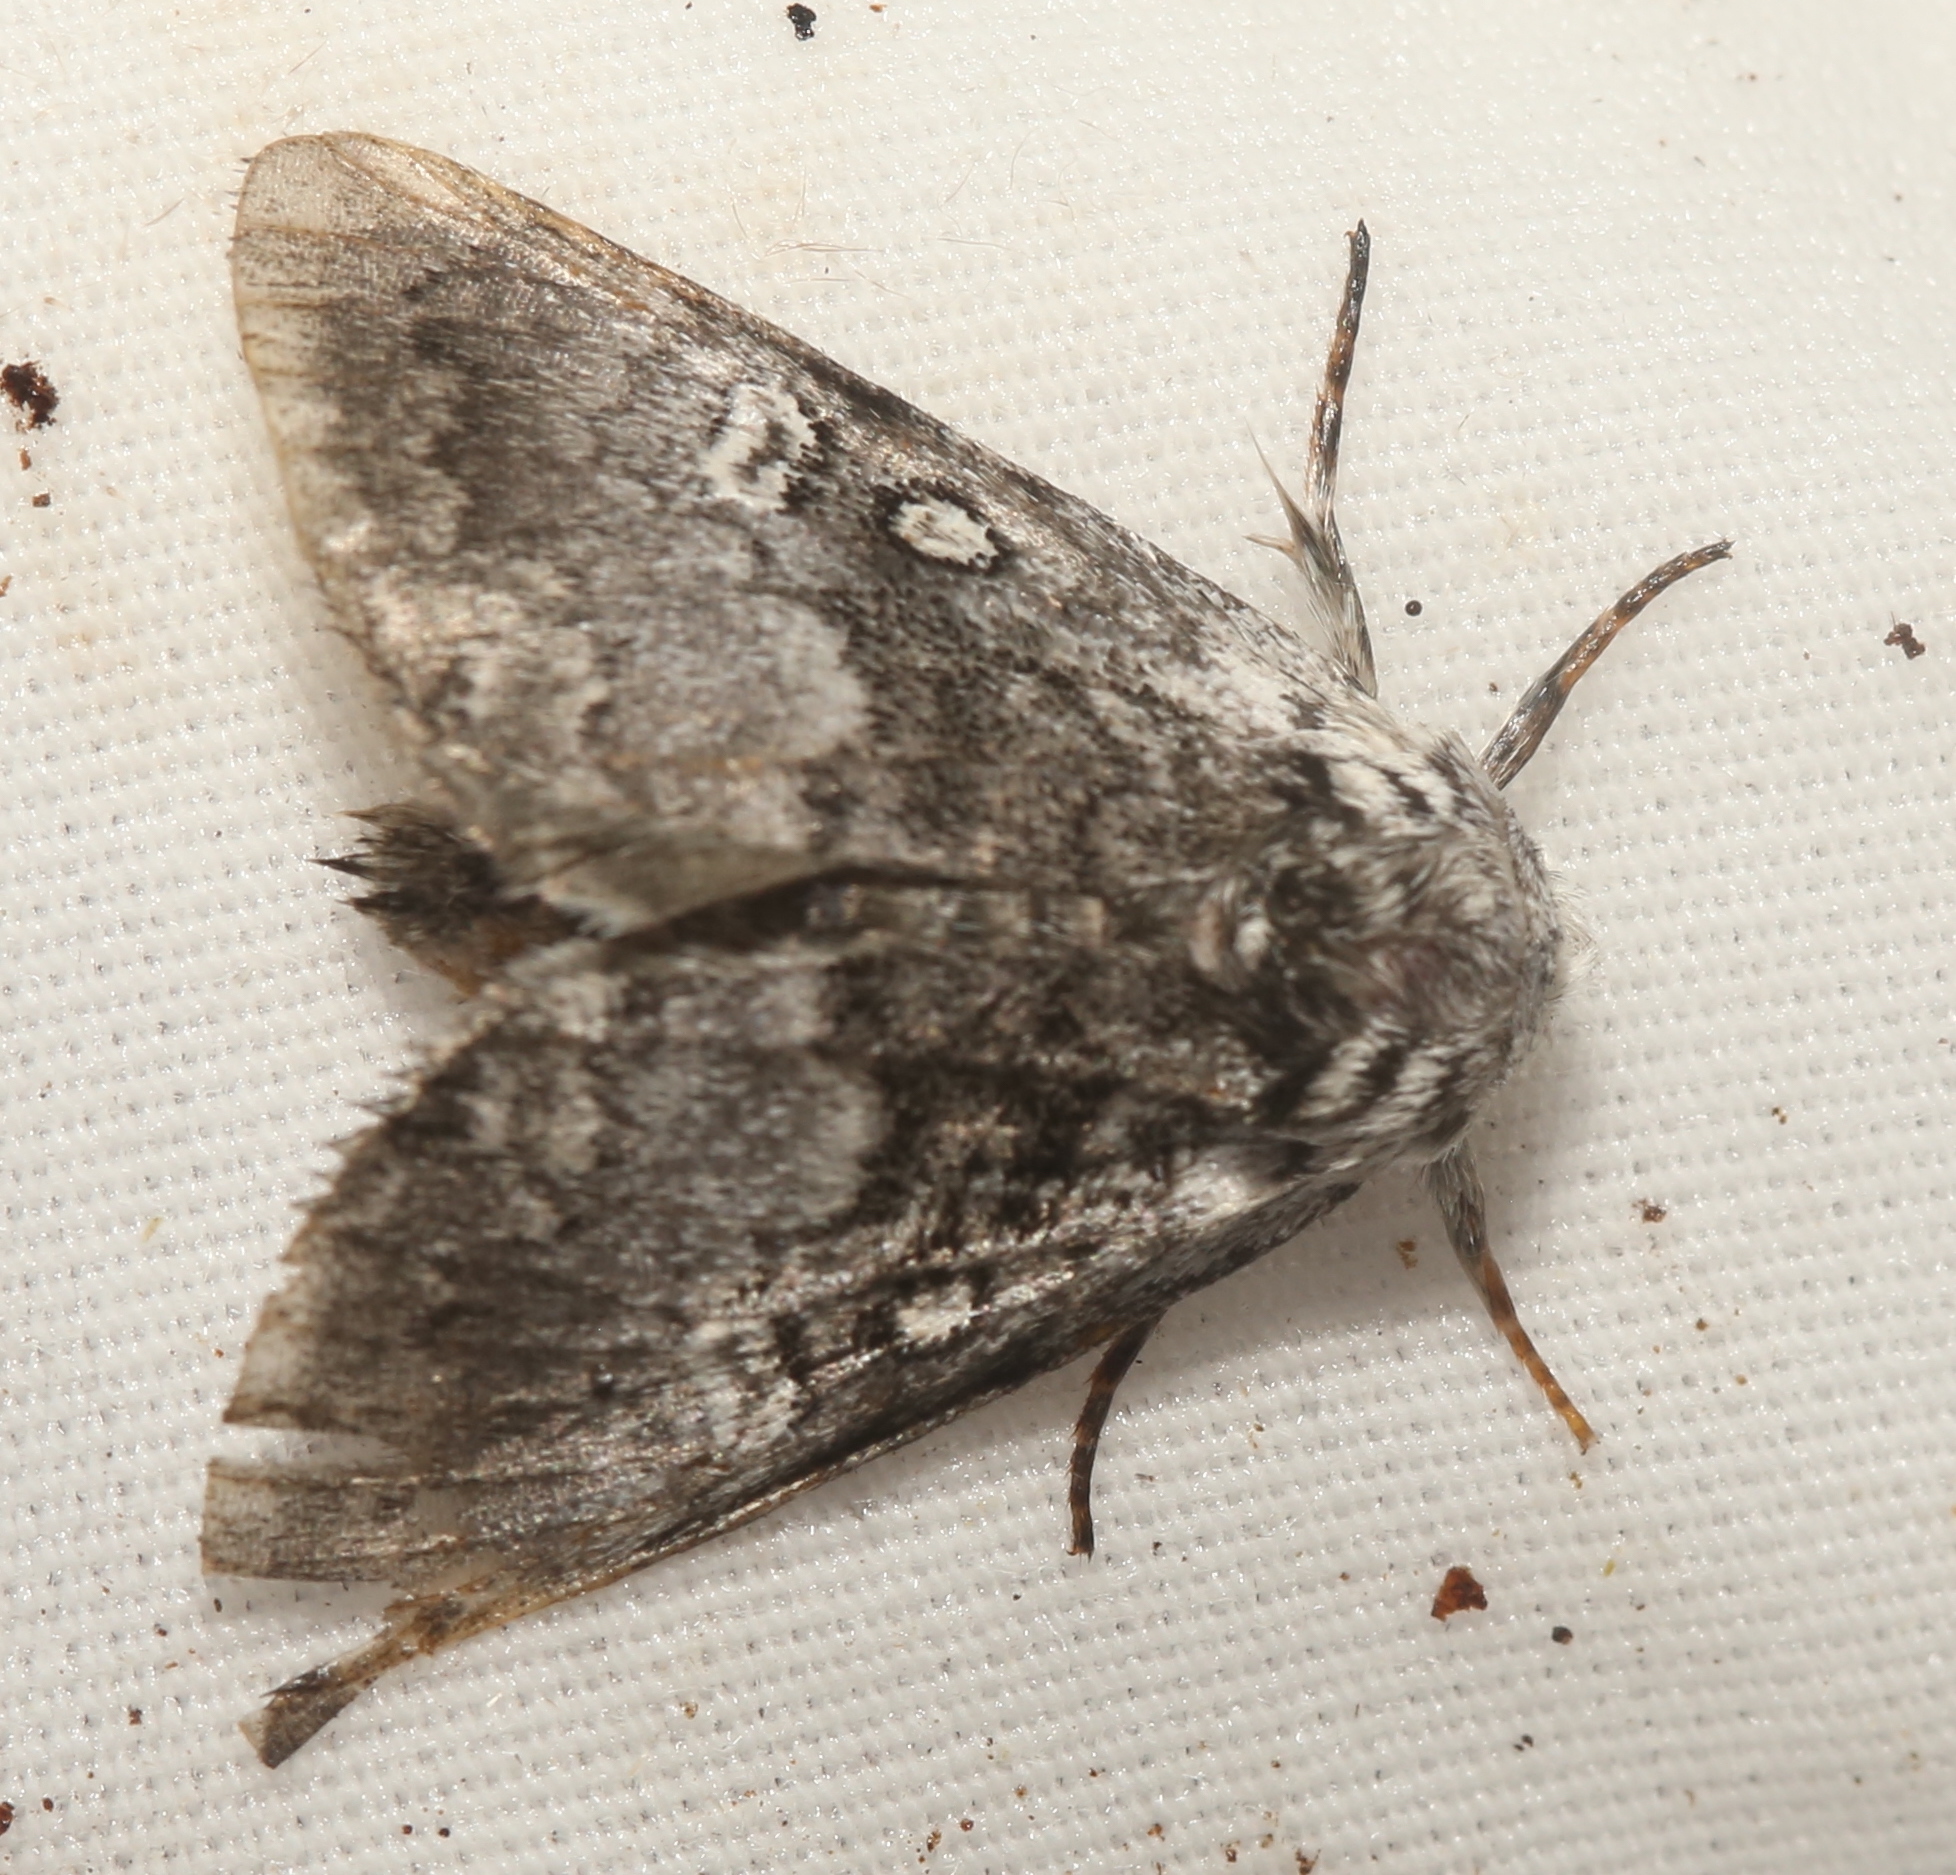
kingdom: Animalia
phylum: Arthropoda
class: Insecta
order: Lepidoptera
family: Noctuidae
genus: Colocasia
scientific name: Colocasia propinquilinea
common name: Close-banded demas
